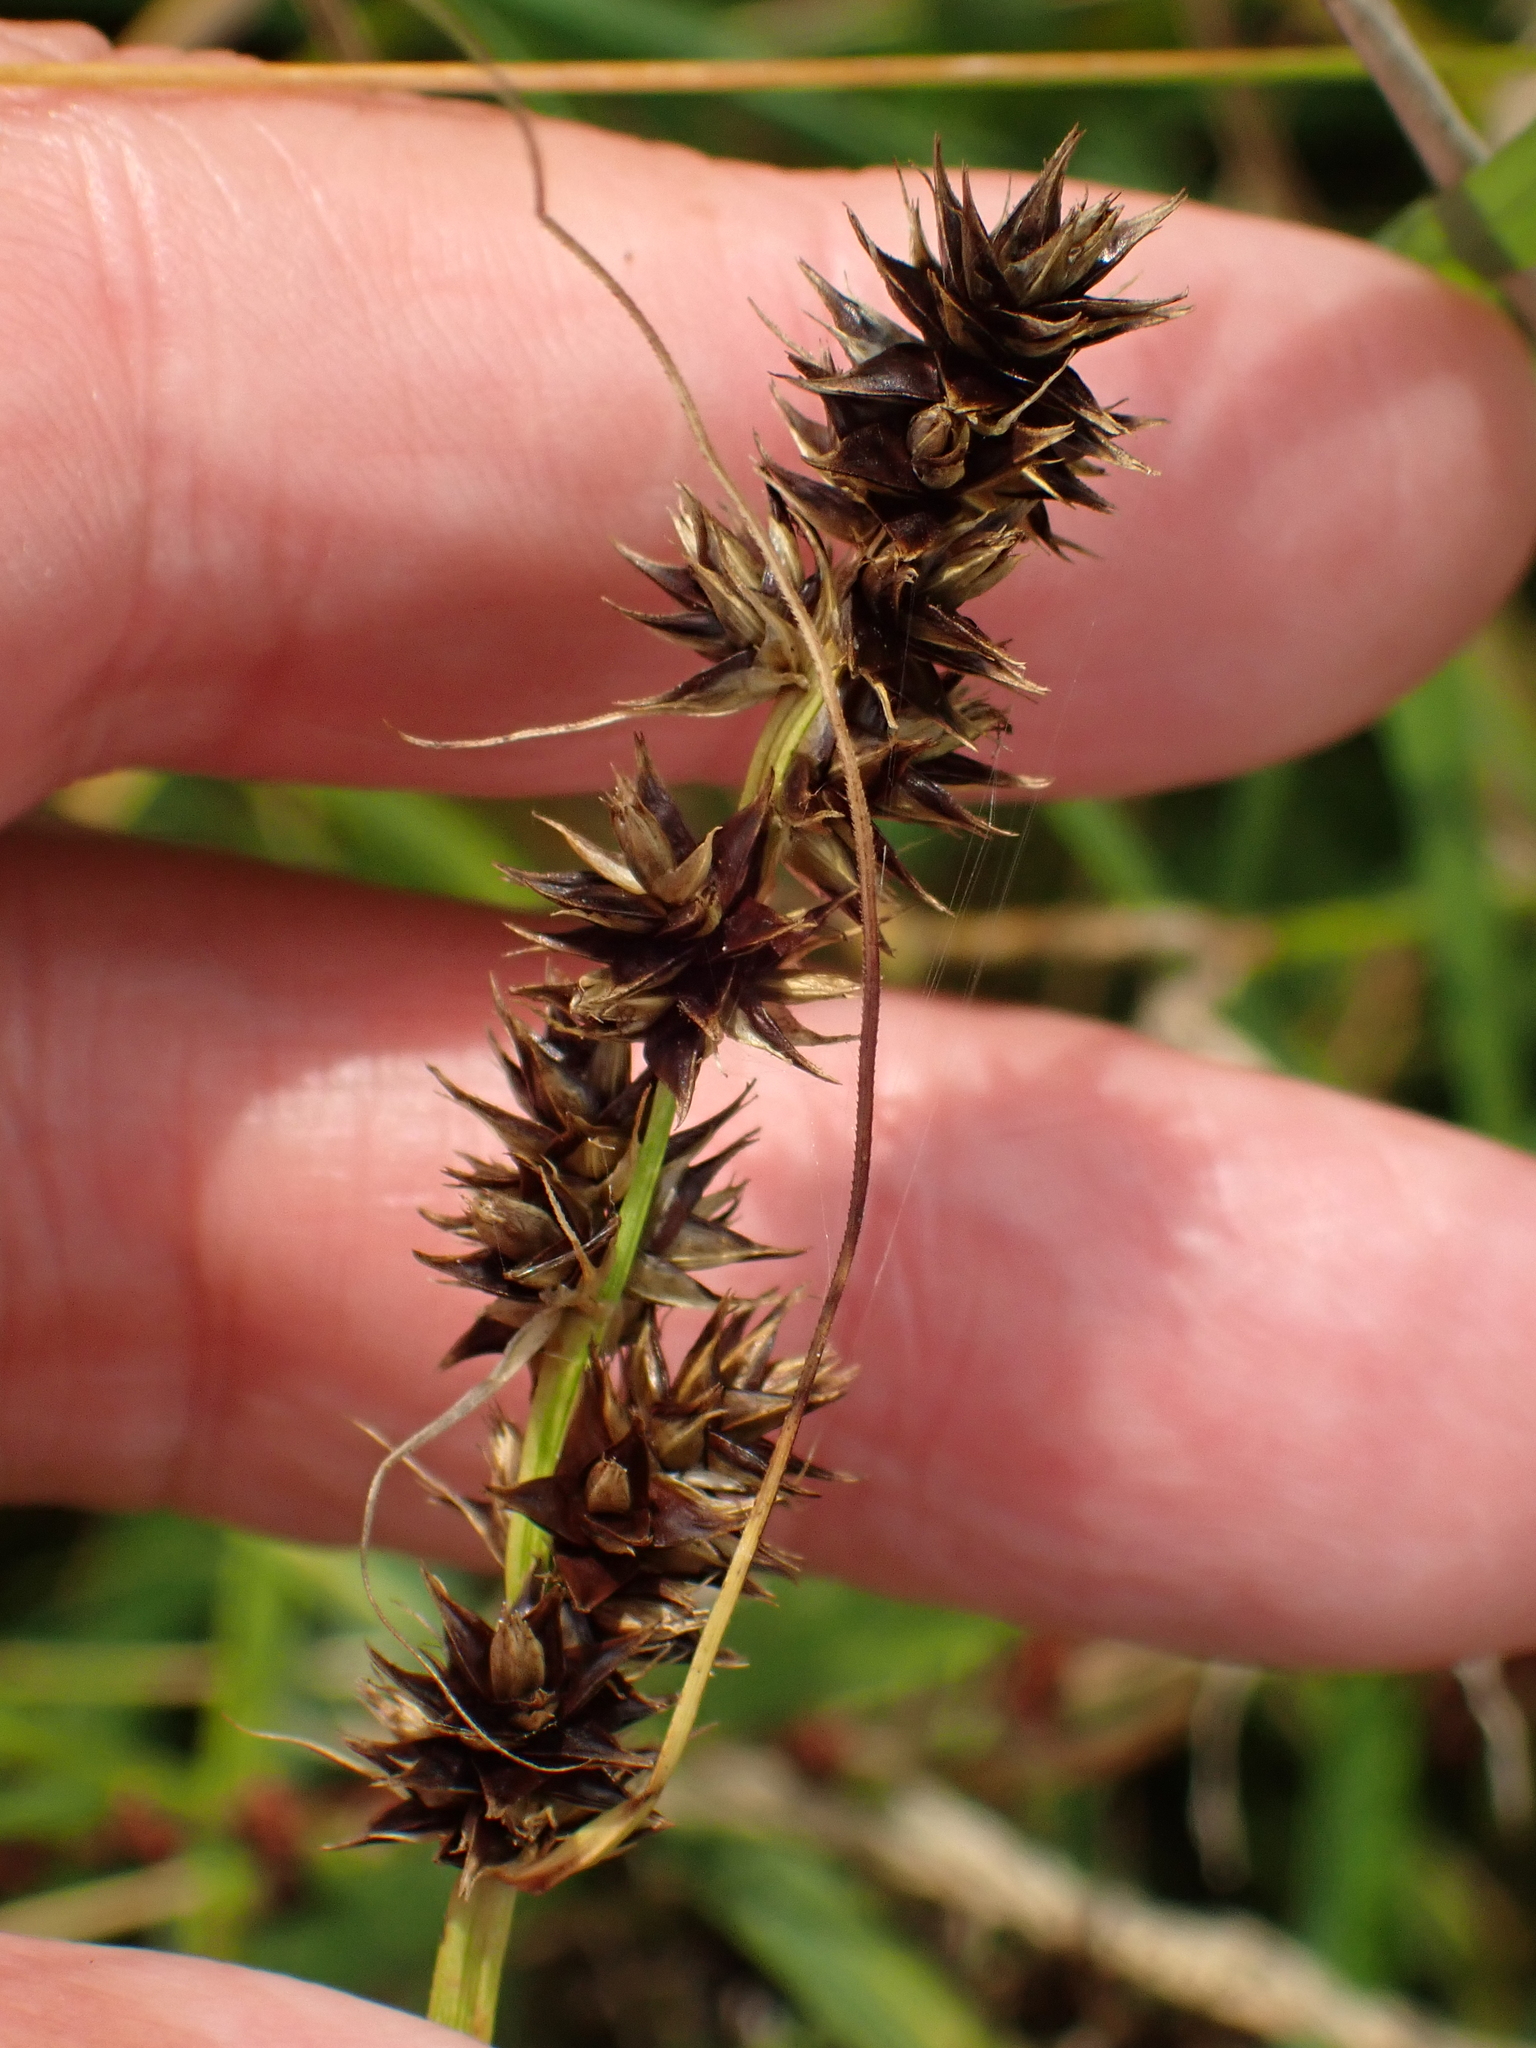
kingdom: Plantae
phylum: Tracheophyta
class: Liliopsida
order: Poales
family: Cyperaceae
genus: Carex
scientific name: Carex otrubae
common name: False fox-sedge
